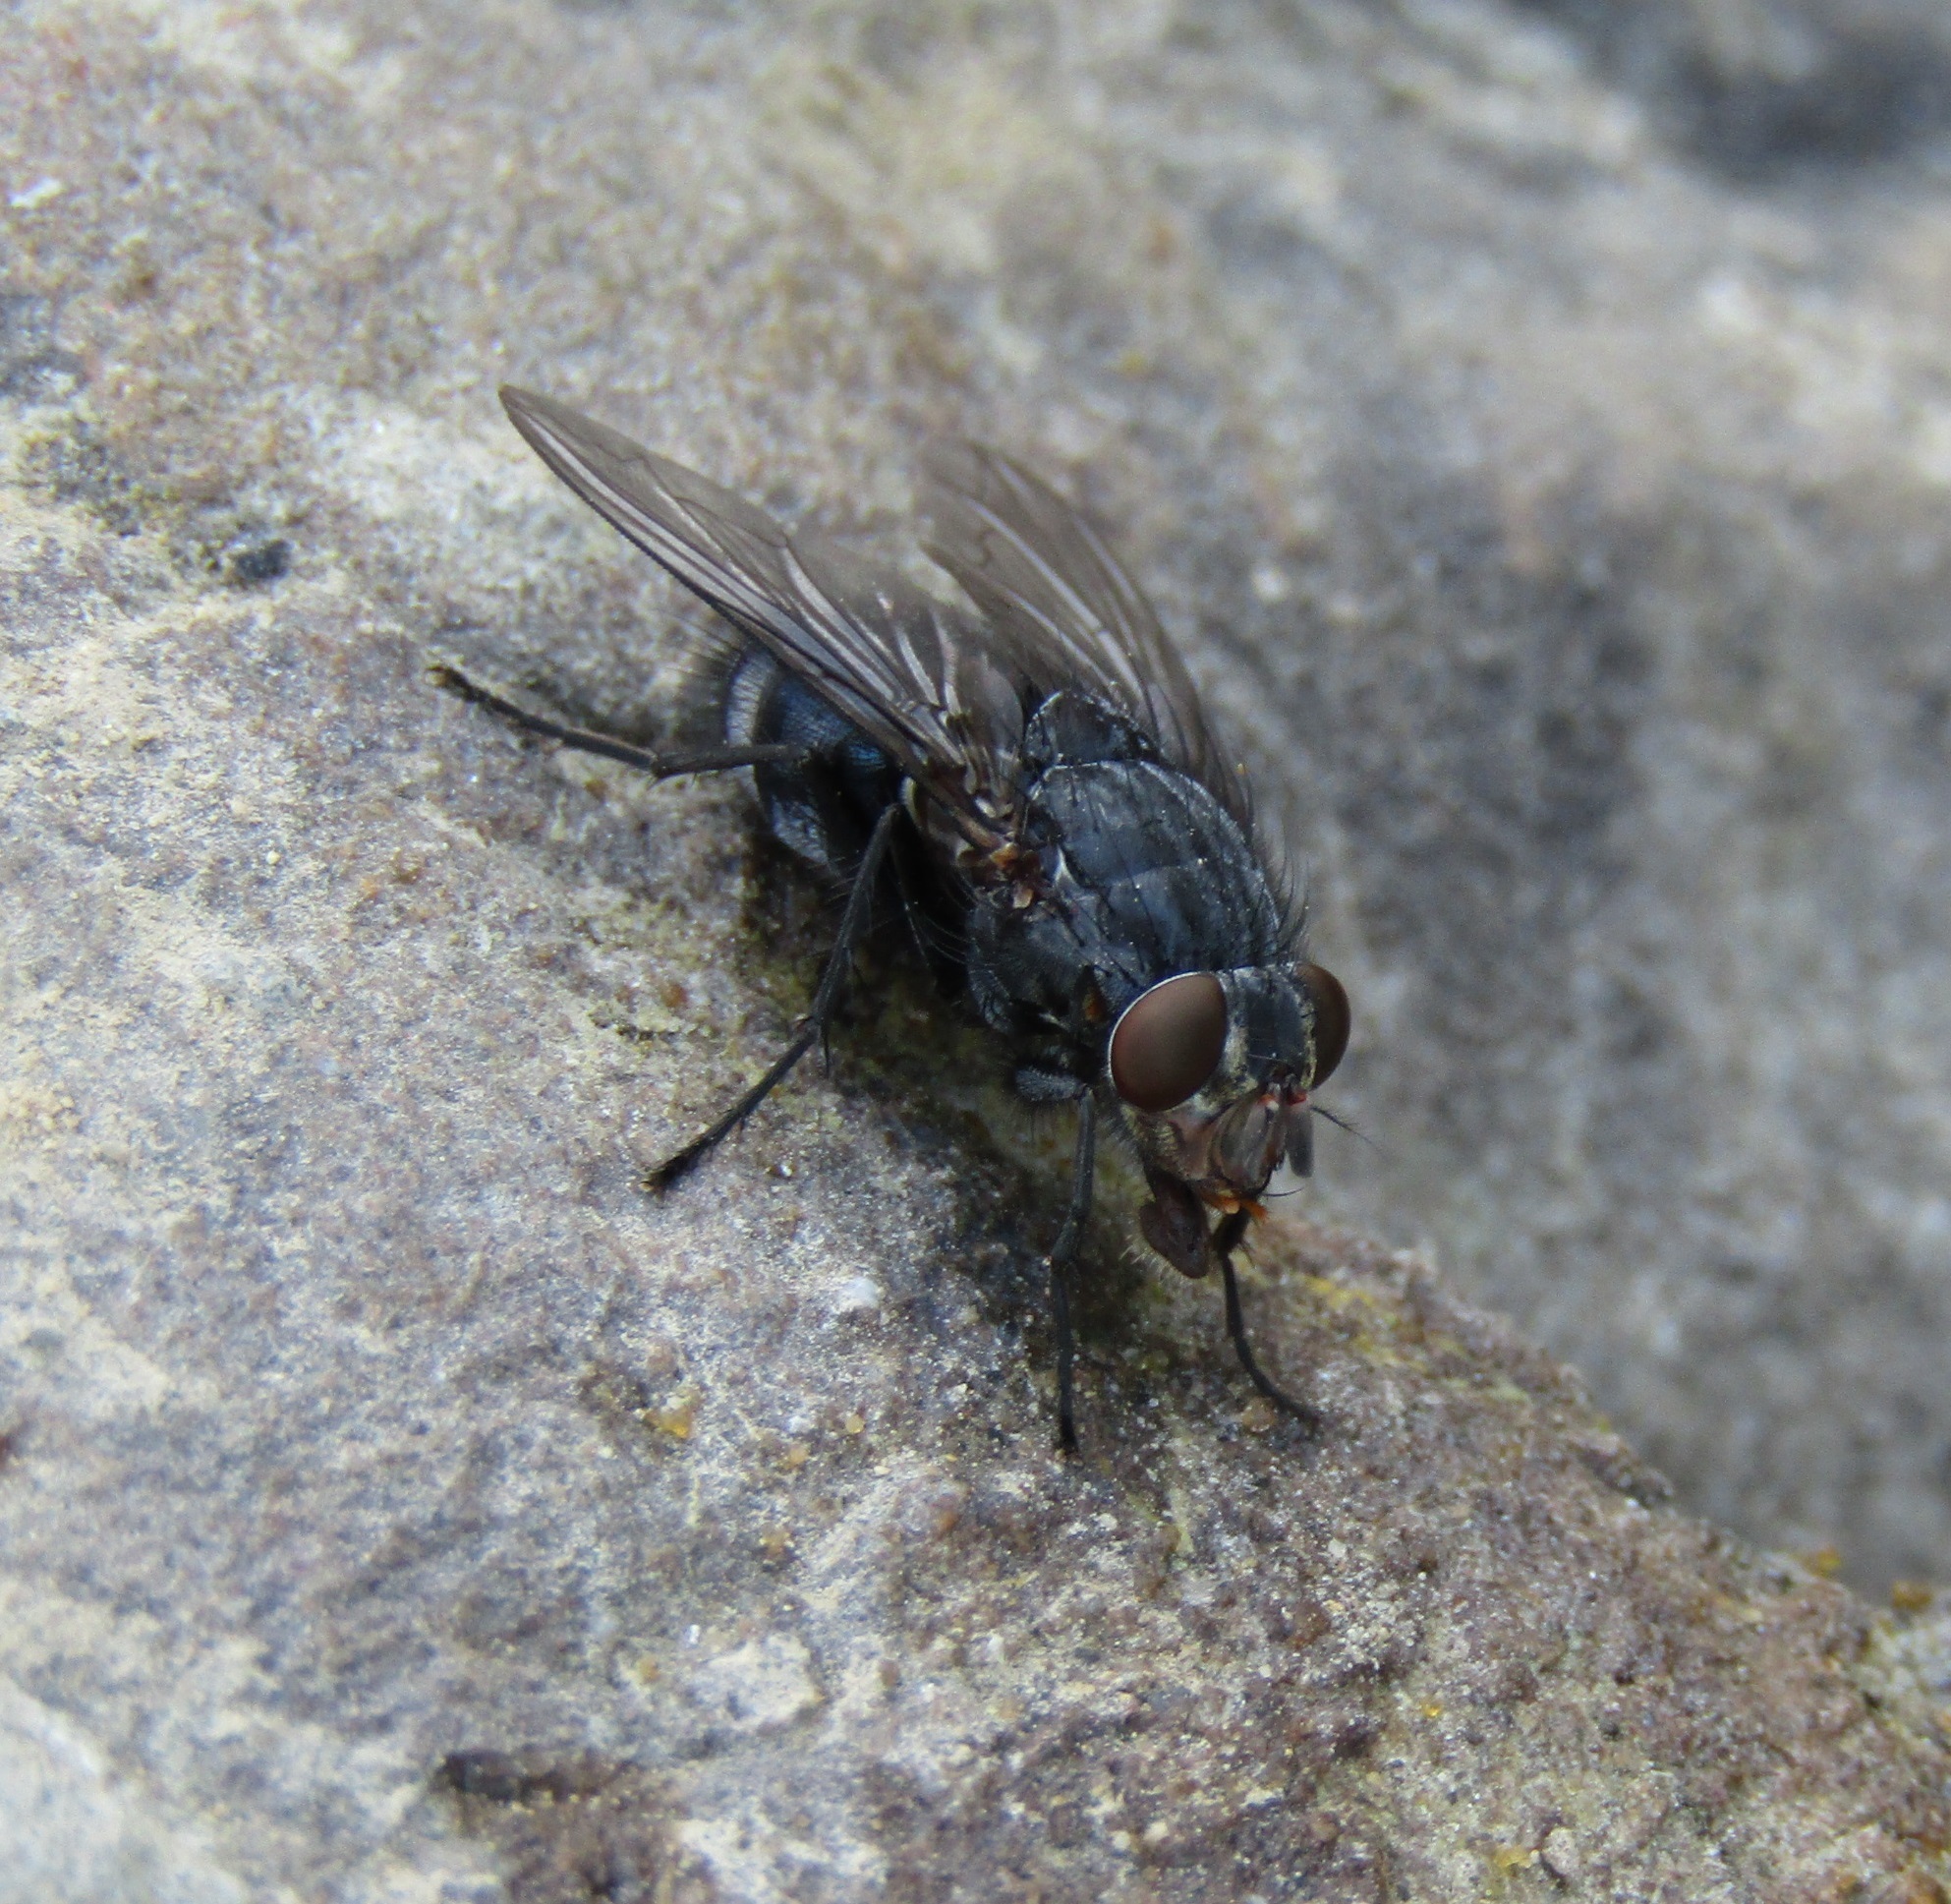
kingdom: Animalia
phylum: Arthropoda
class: Insecta
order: Diptera
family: Calliphoridae
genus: Calliphora
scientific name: Calliphora vicina
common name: Common blow flie
